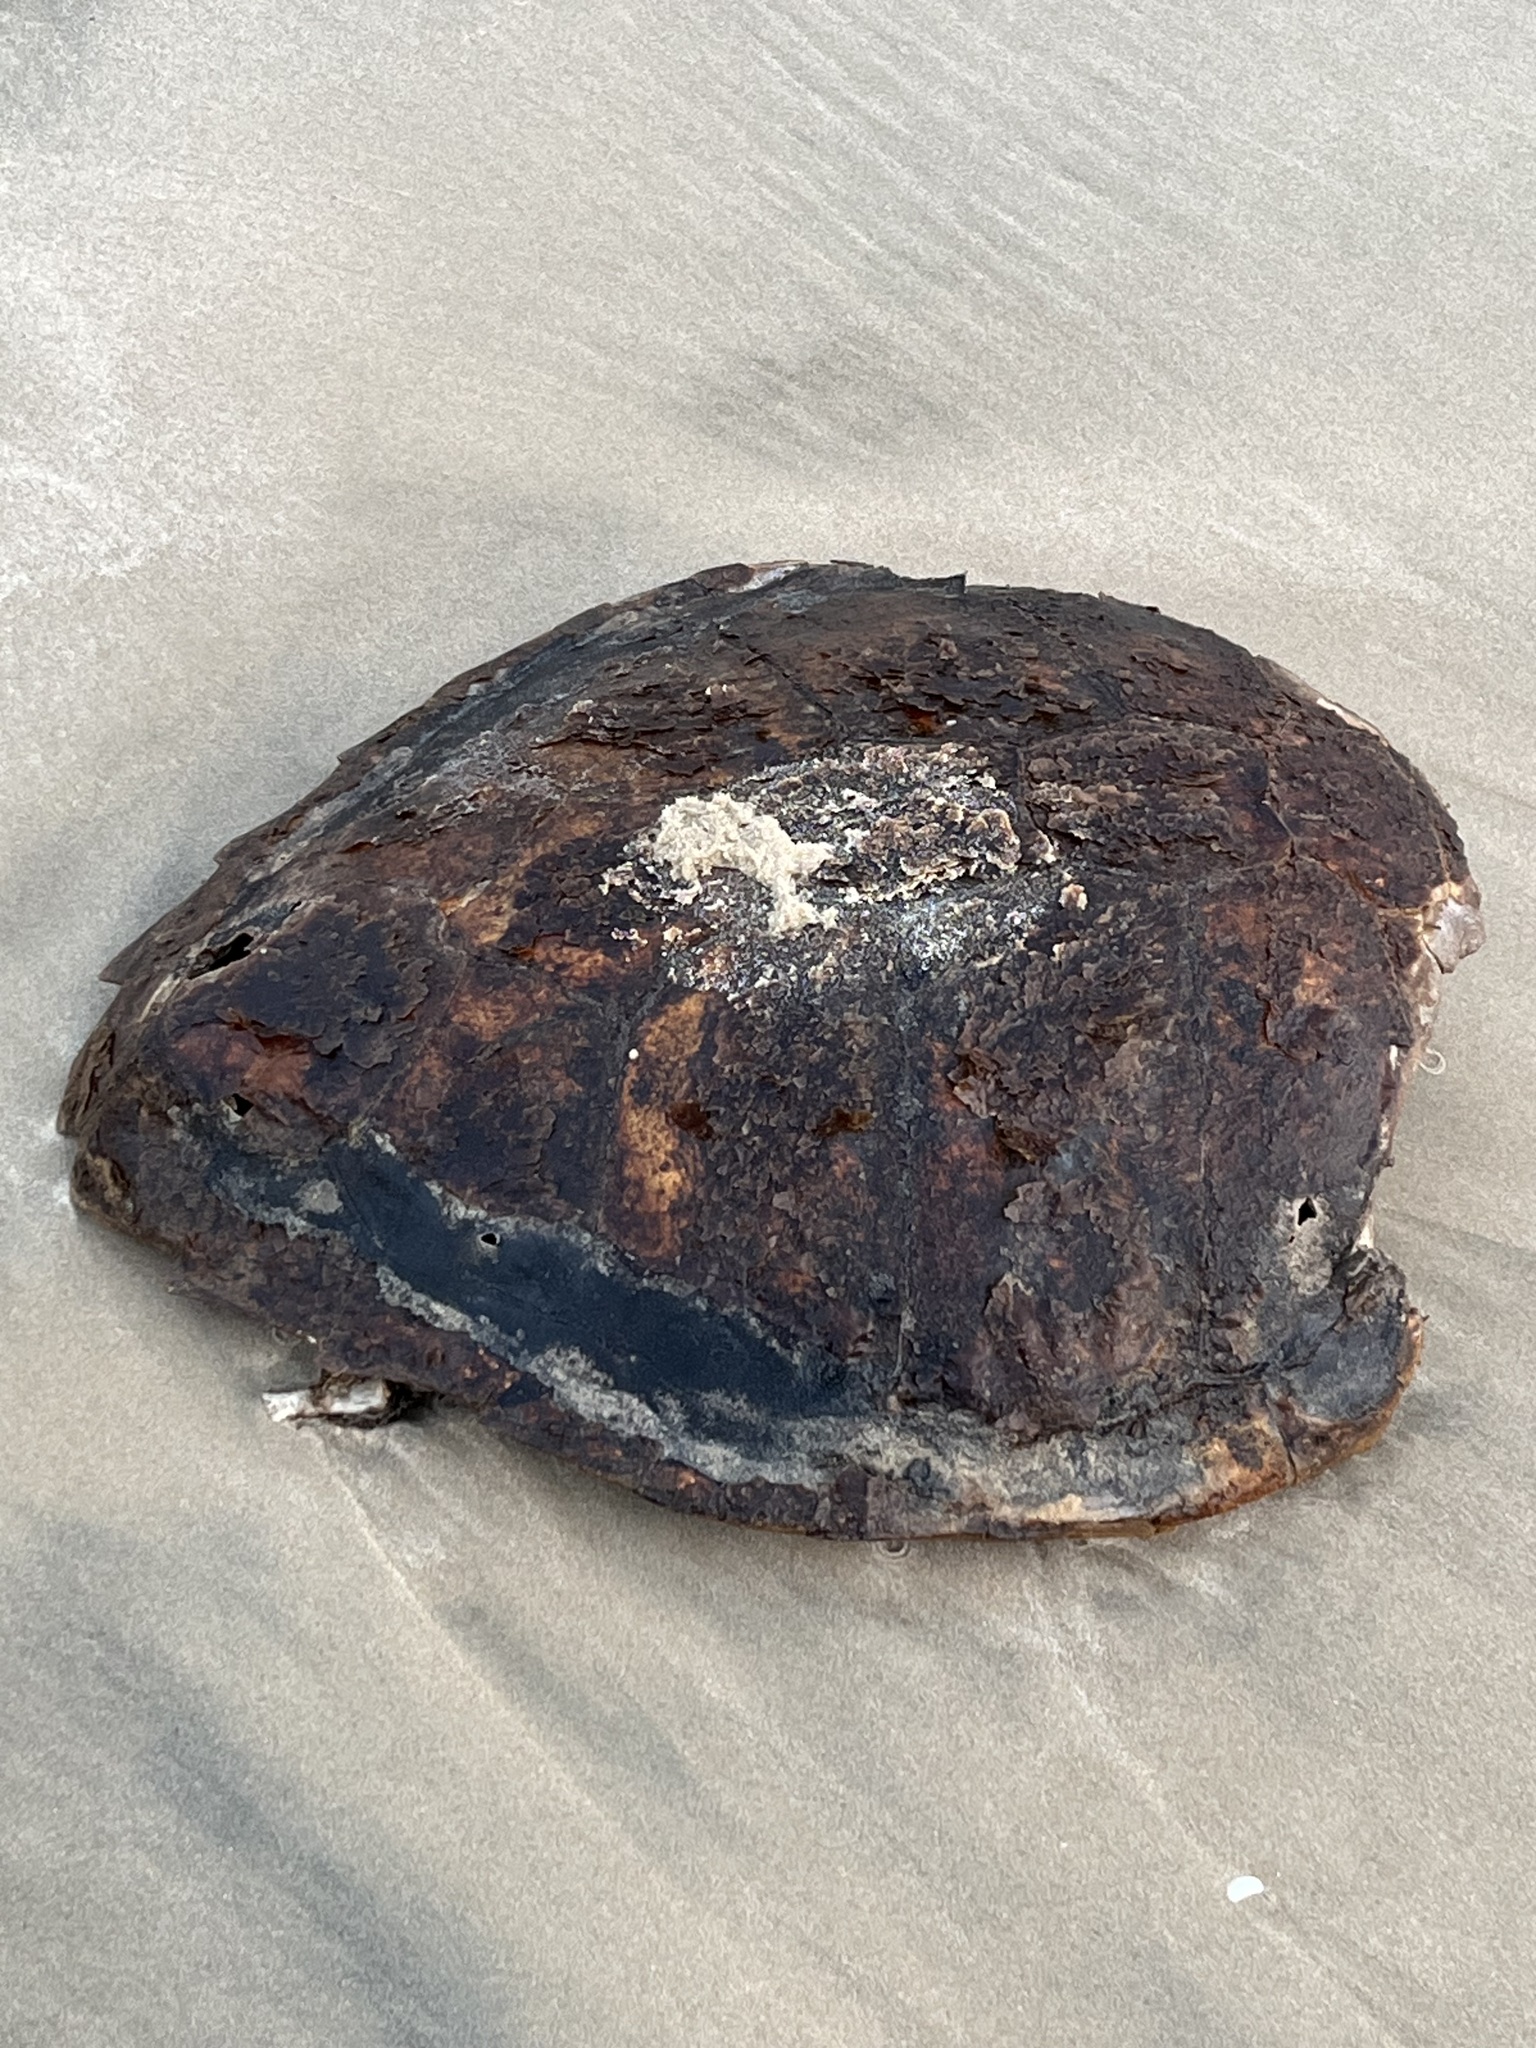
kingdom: Animalia
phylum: Chordata
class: Testudines
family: Cheloniidae
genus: Chelonia
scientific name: Chelonia mydas
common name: Green turtle
